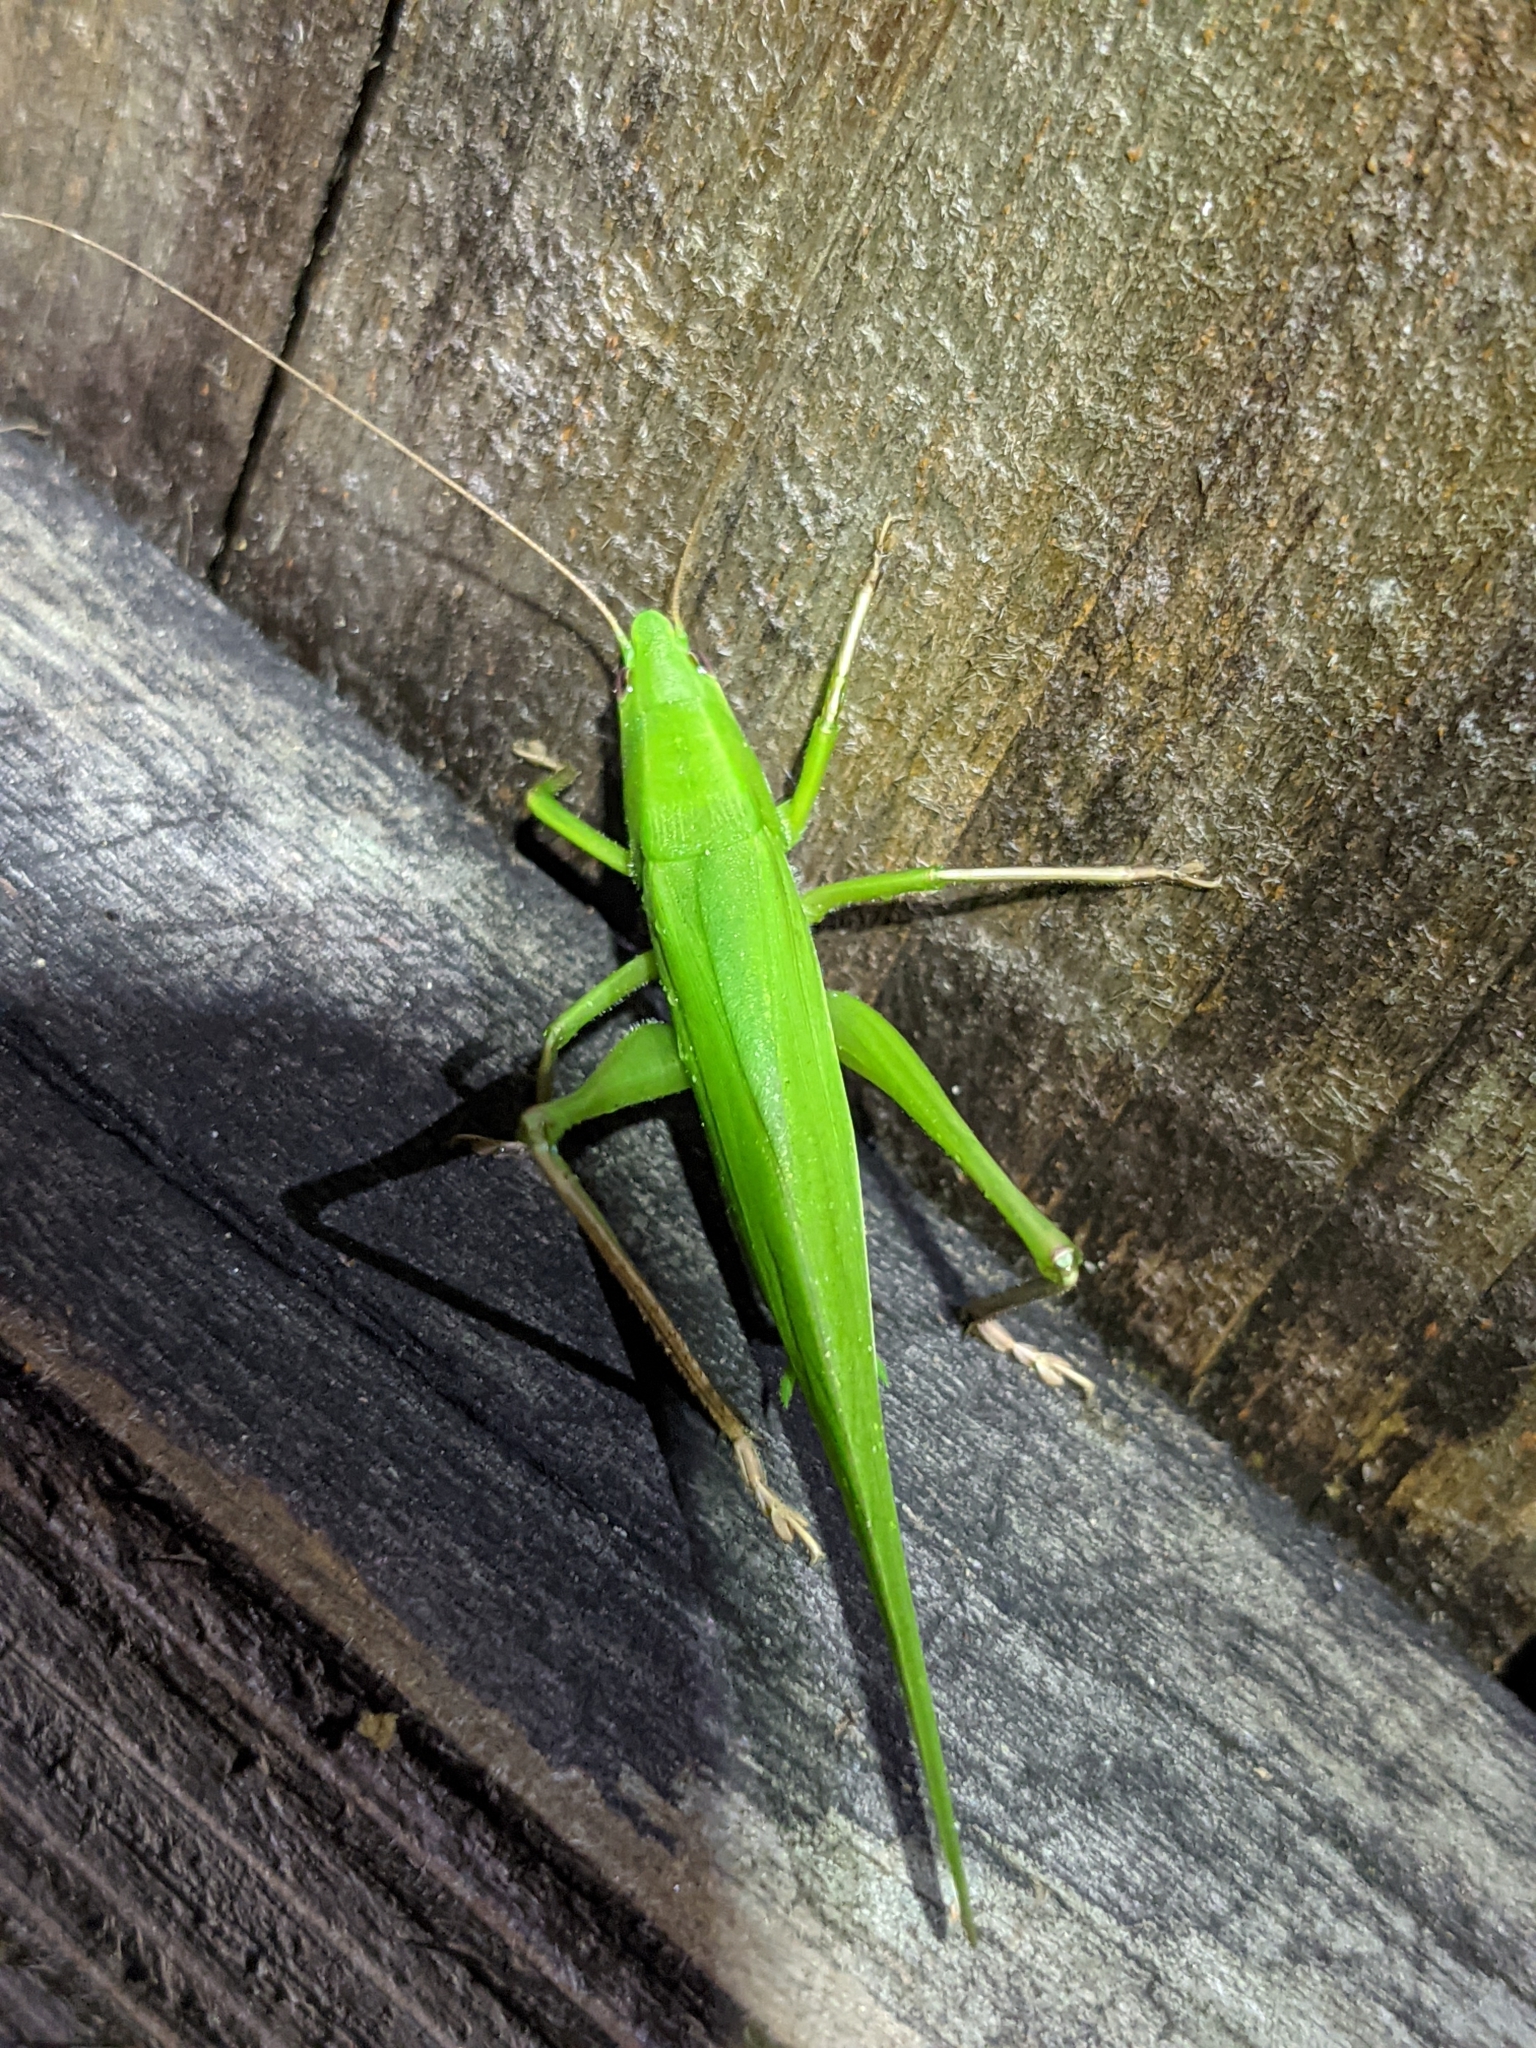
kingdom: Animalia
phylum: Arthropoda
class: Insecta
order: Orthoptera
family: Tettigoniidae
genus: Neoconocephalus
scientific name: Neoconocephalus triops
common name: Broad-tipped conehead
